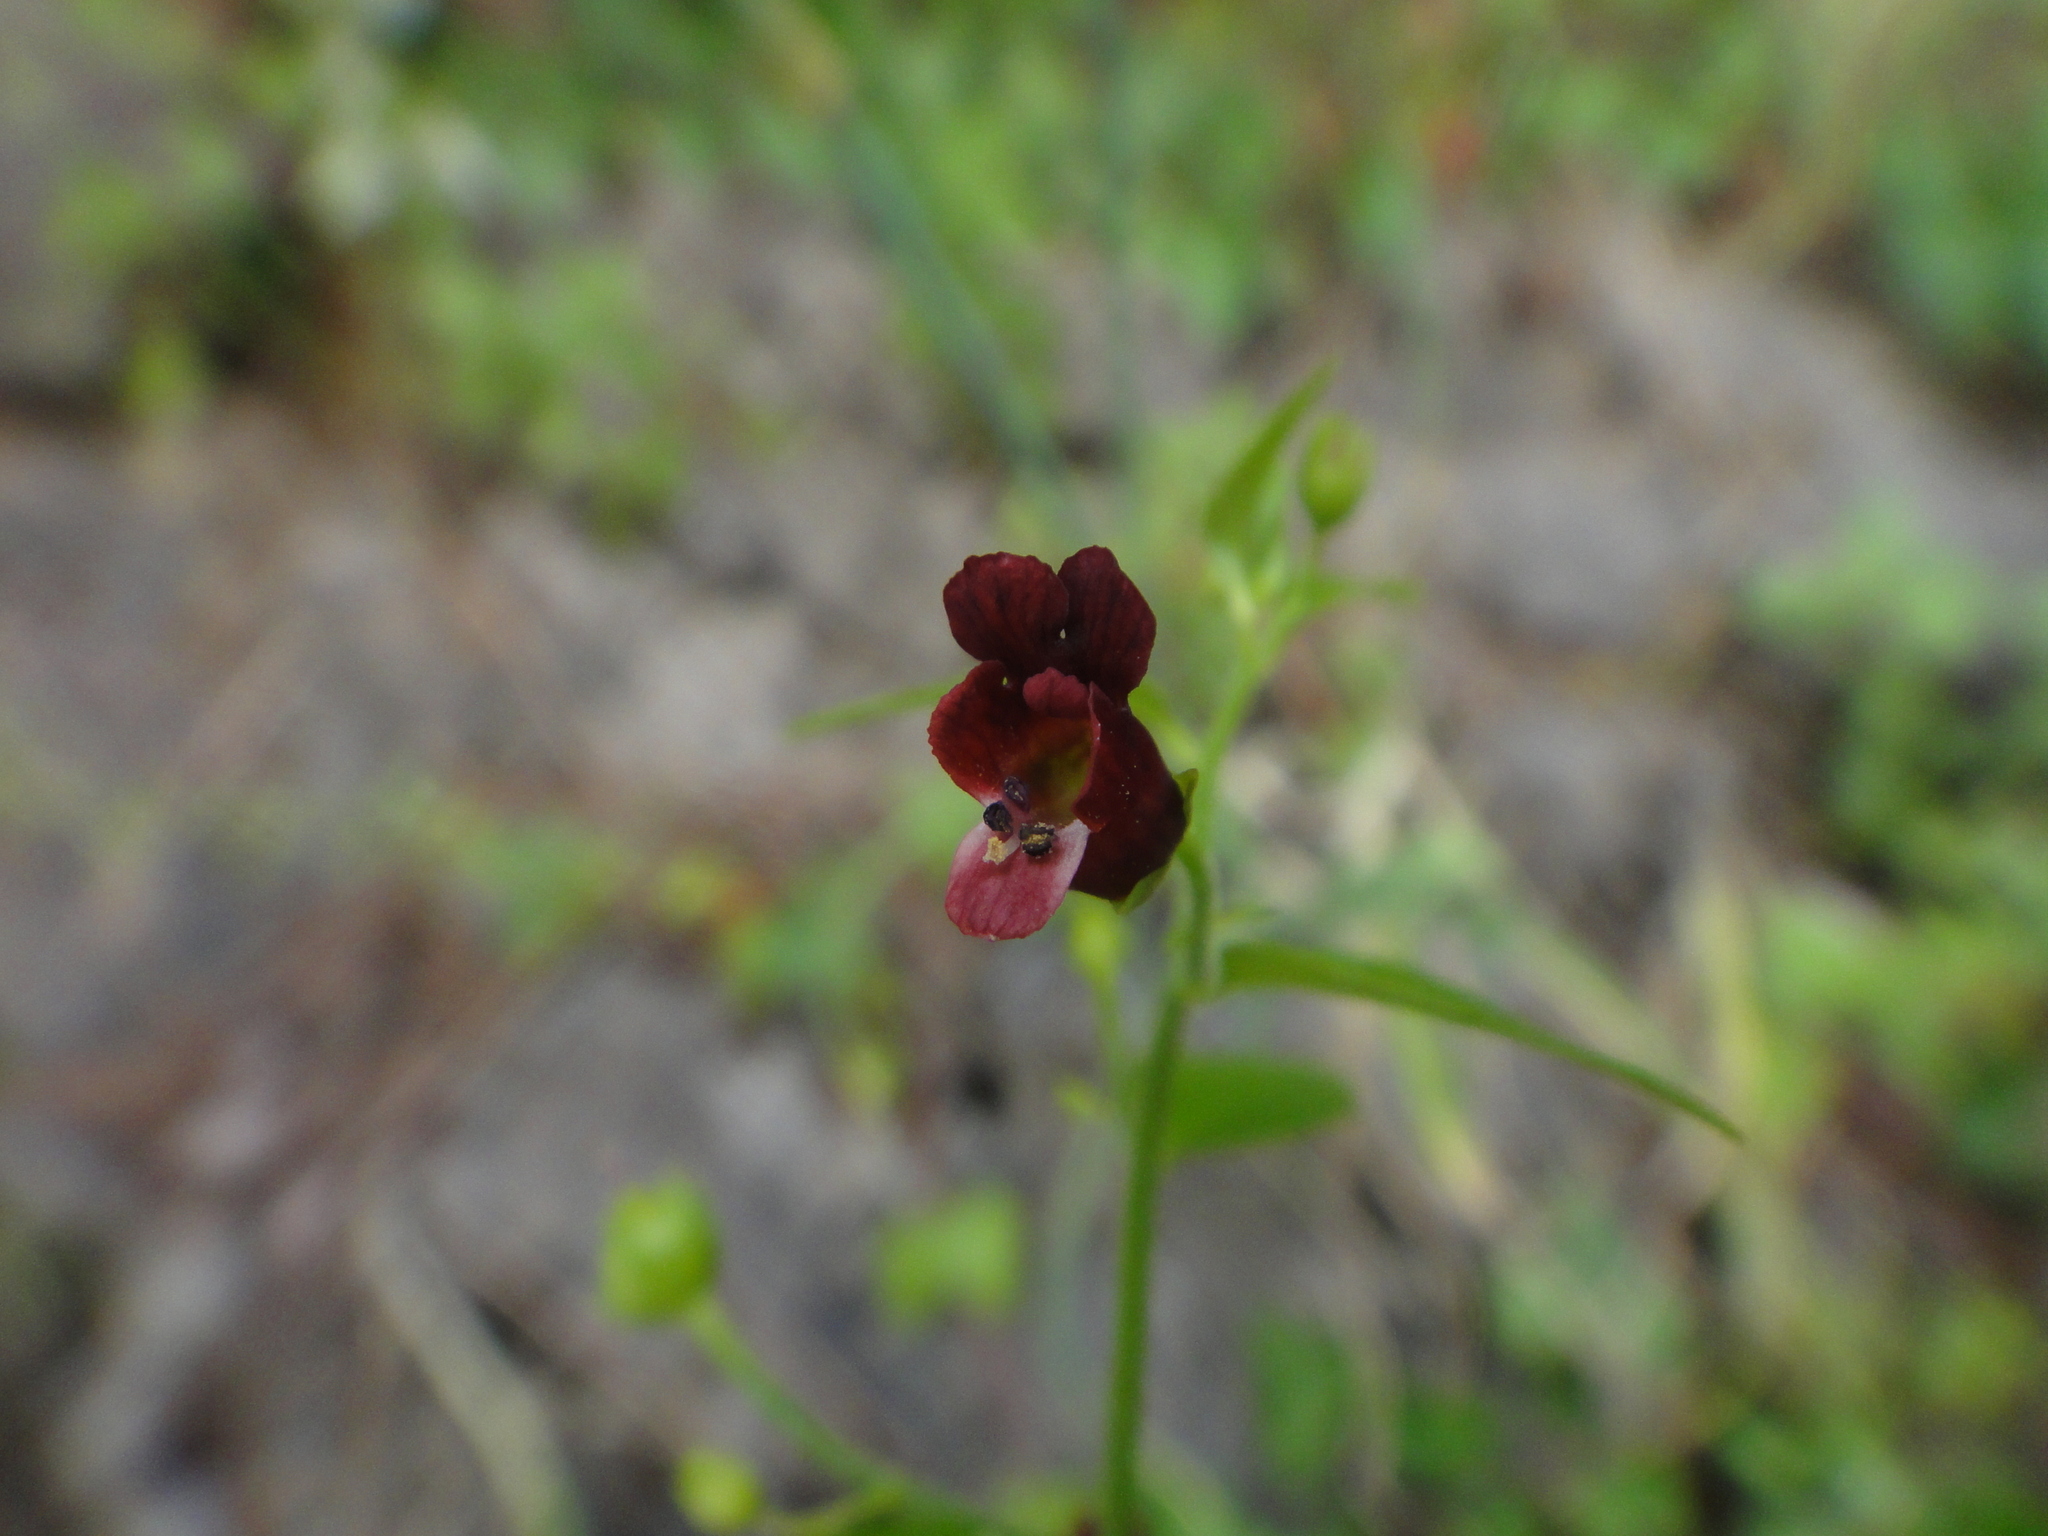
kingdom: Plantae
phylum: Tracheophyta
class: Magnoliopsida
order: Lamiales
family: Scrophulariaceae
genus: Scrophularia
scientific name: Scrophularia peregrina
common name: Mediterranean figwort
